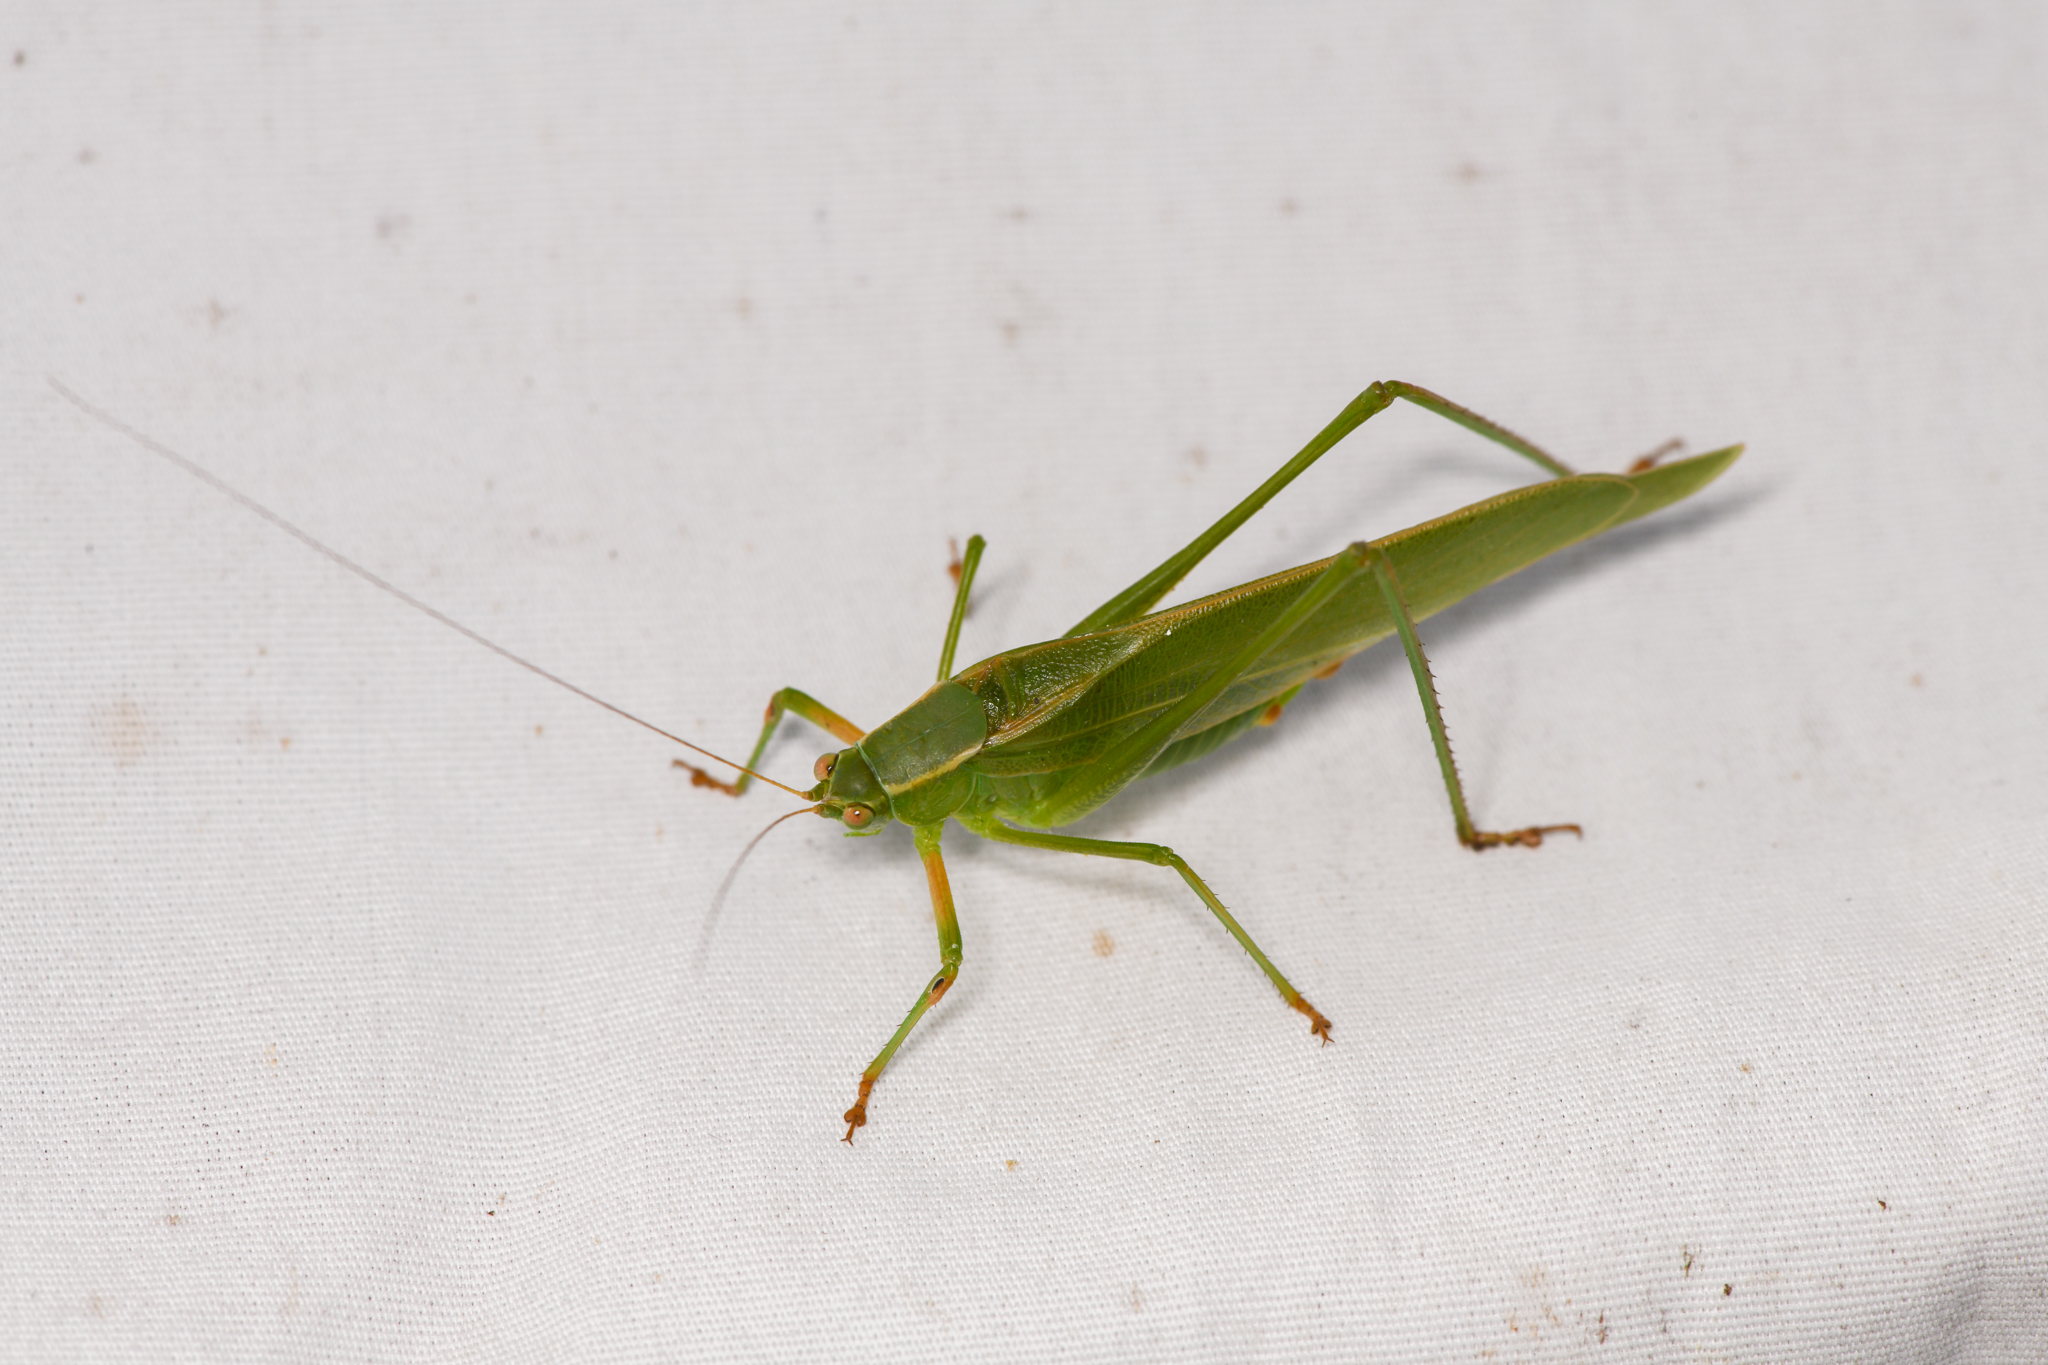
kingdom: Animalia
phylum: Arthropoda
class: Insecta
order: Orthoptera
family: Tettigoniidae
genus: Scudderia
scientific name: Scudderia furcata
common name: Fork-tailed bush katydid
